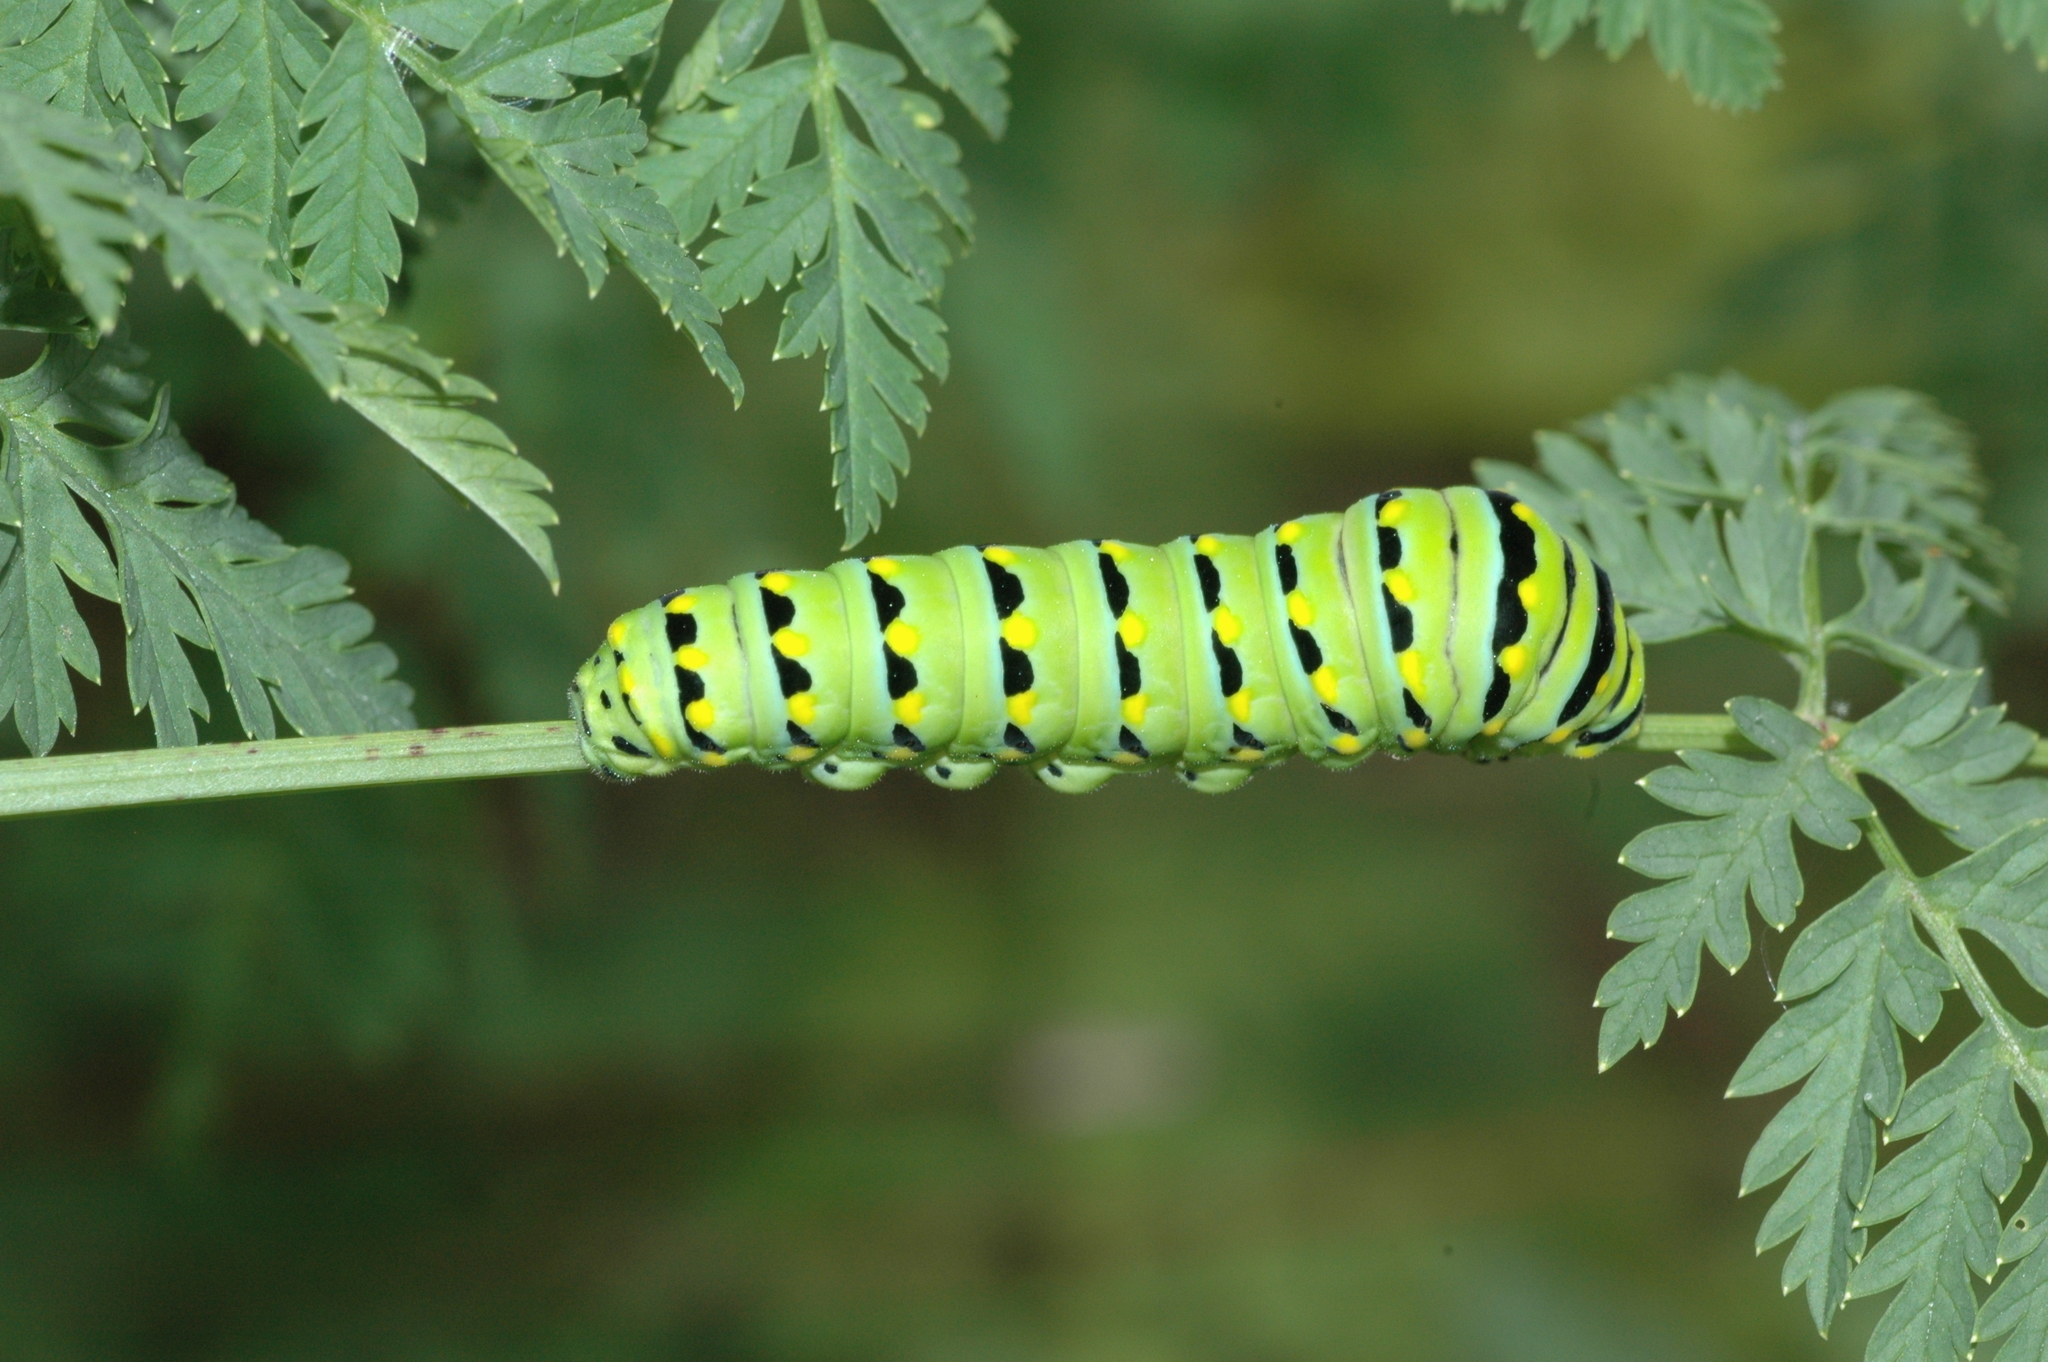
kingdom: Animalia
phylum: Arthropoda
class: Insecta
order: Lepidoptera
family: Papilionidae
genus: Papilio
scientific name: Papilio polyxenes
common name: Black swallowtail
